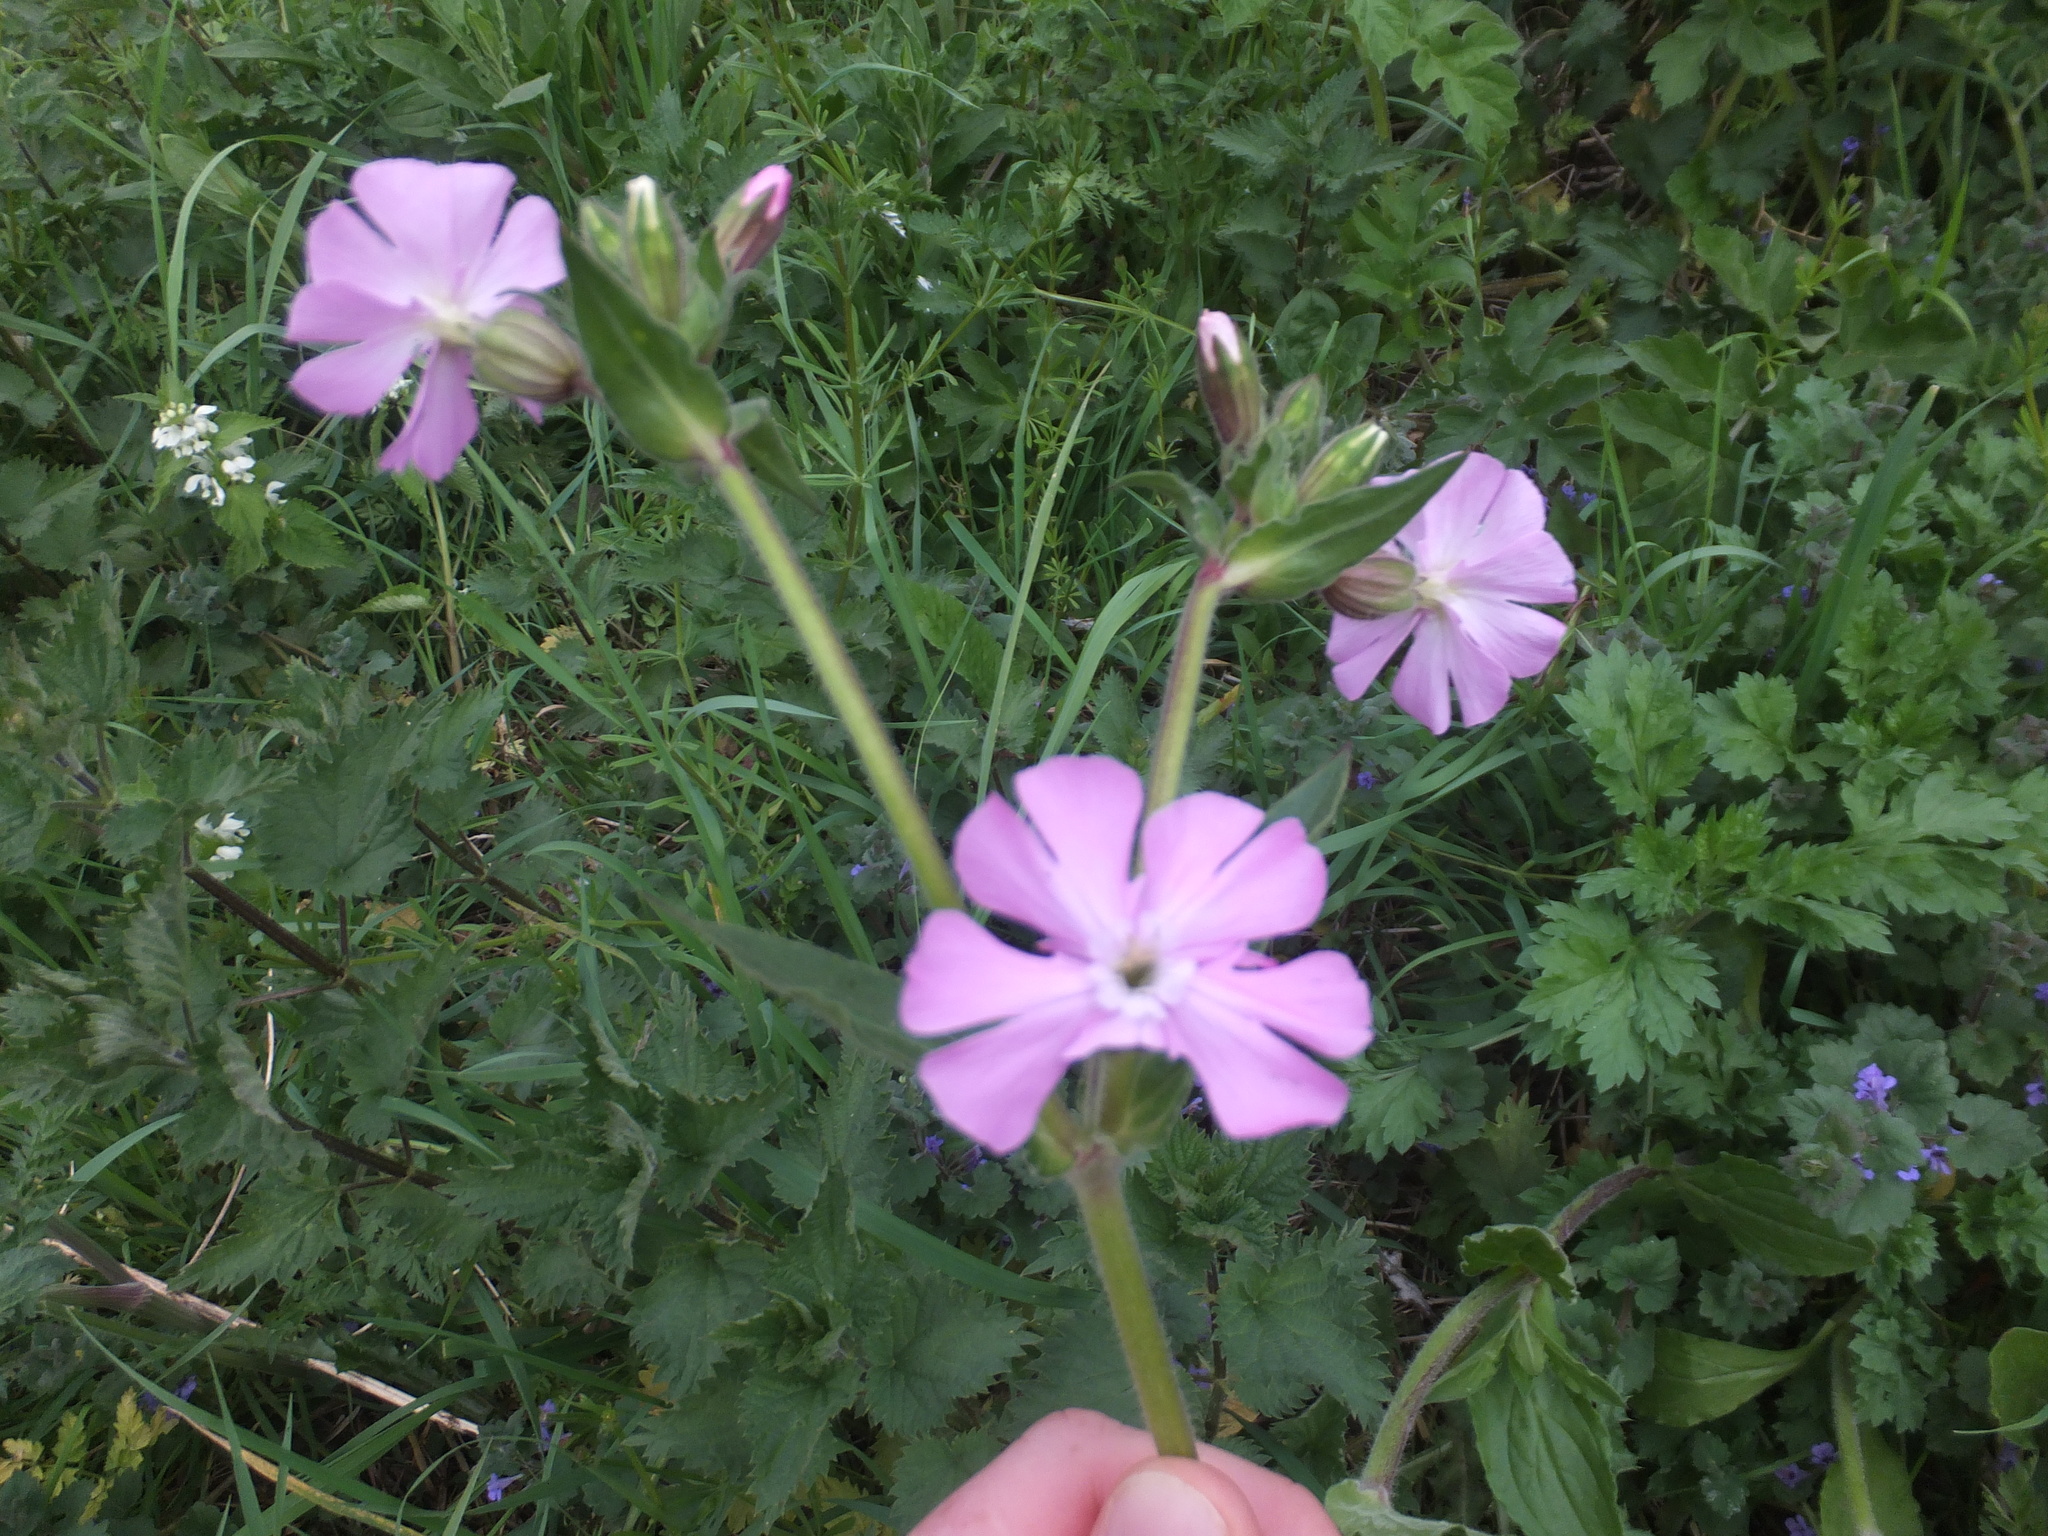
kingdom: Plantae
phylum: Tracheophyta
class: Magnoliopsida
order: Caryophyllales
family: Caryophyllaceae
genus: Silene
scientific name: Silene dioica
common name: Red campion
